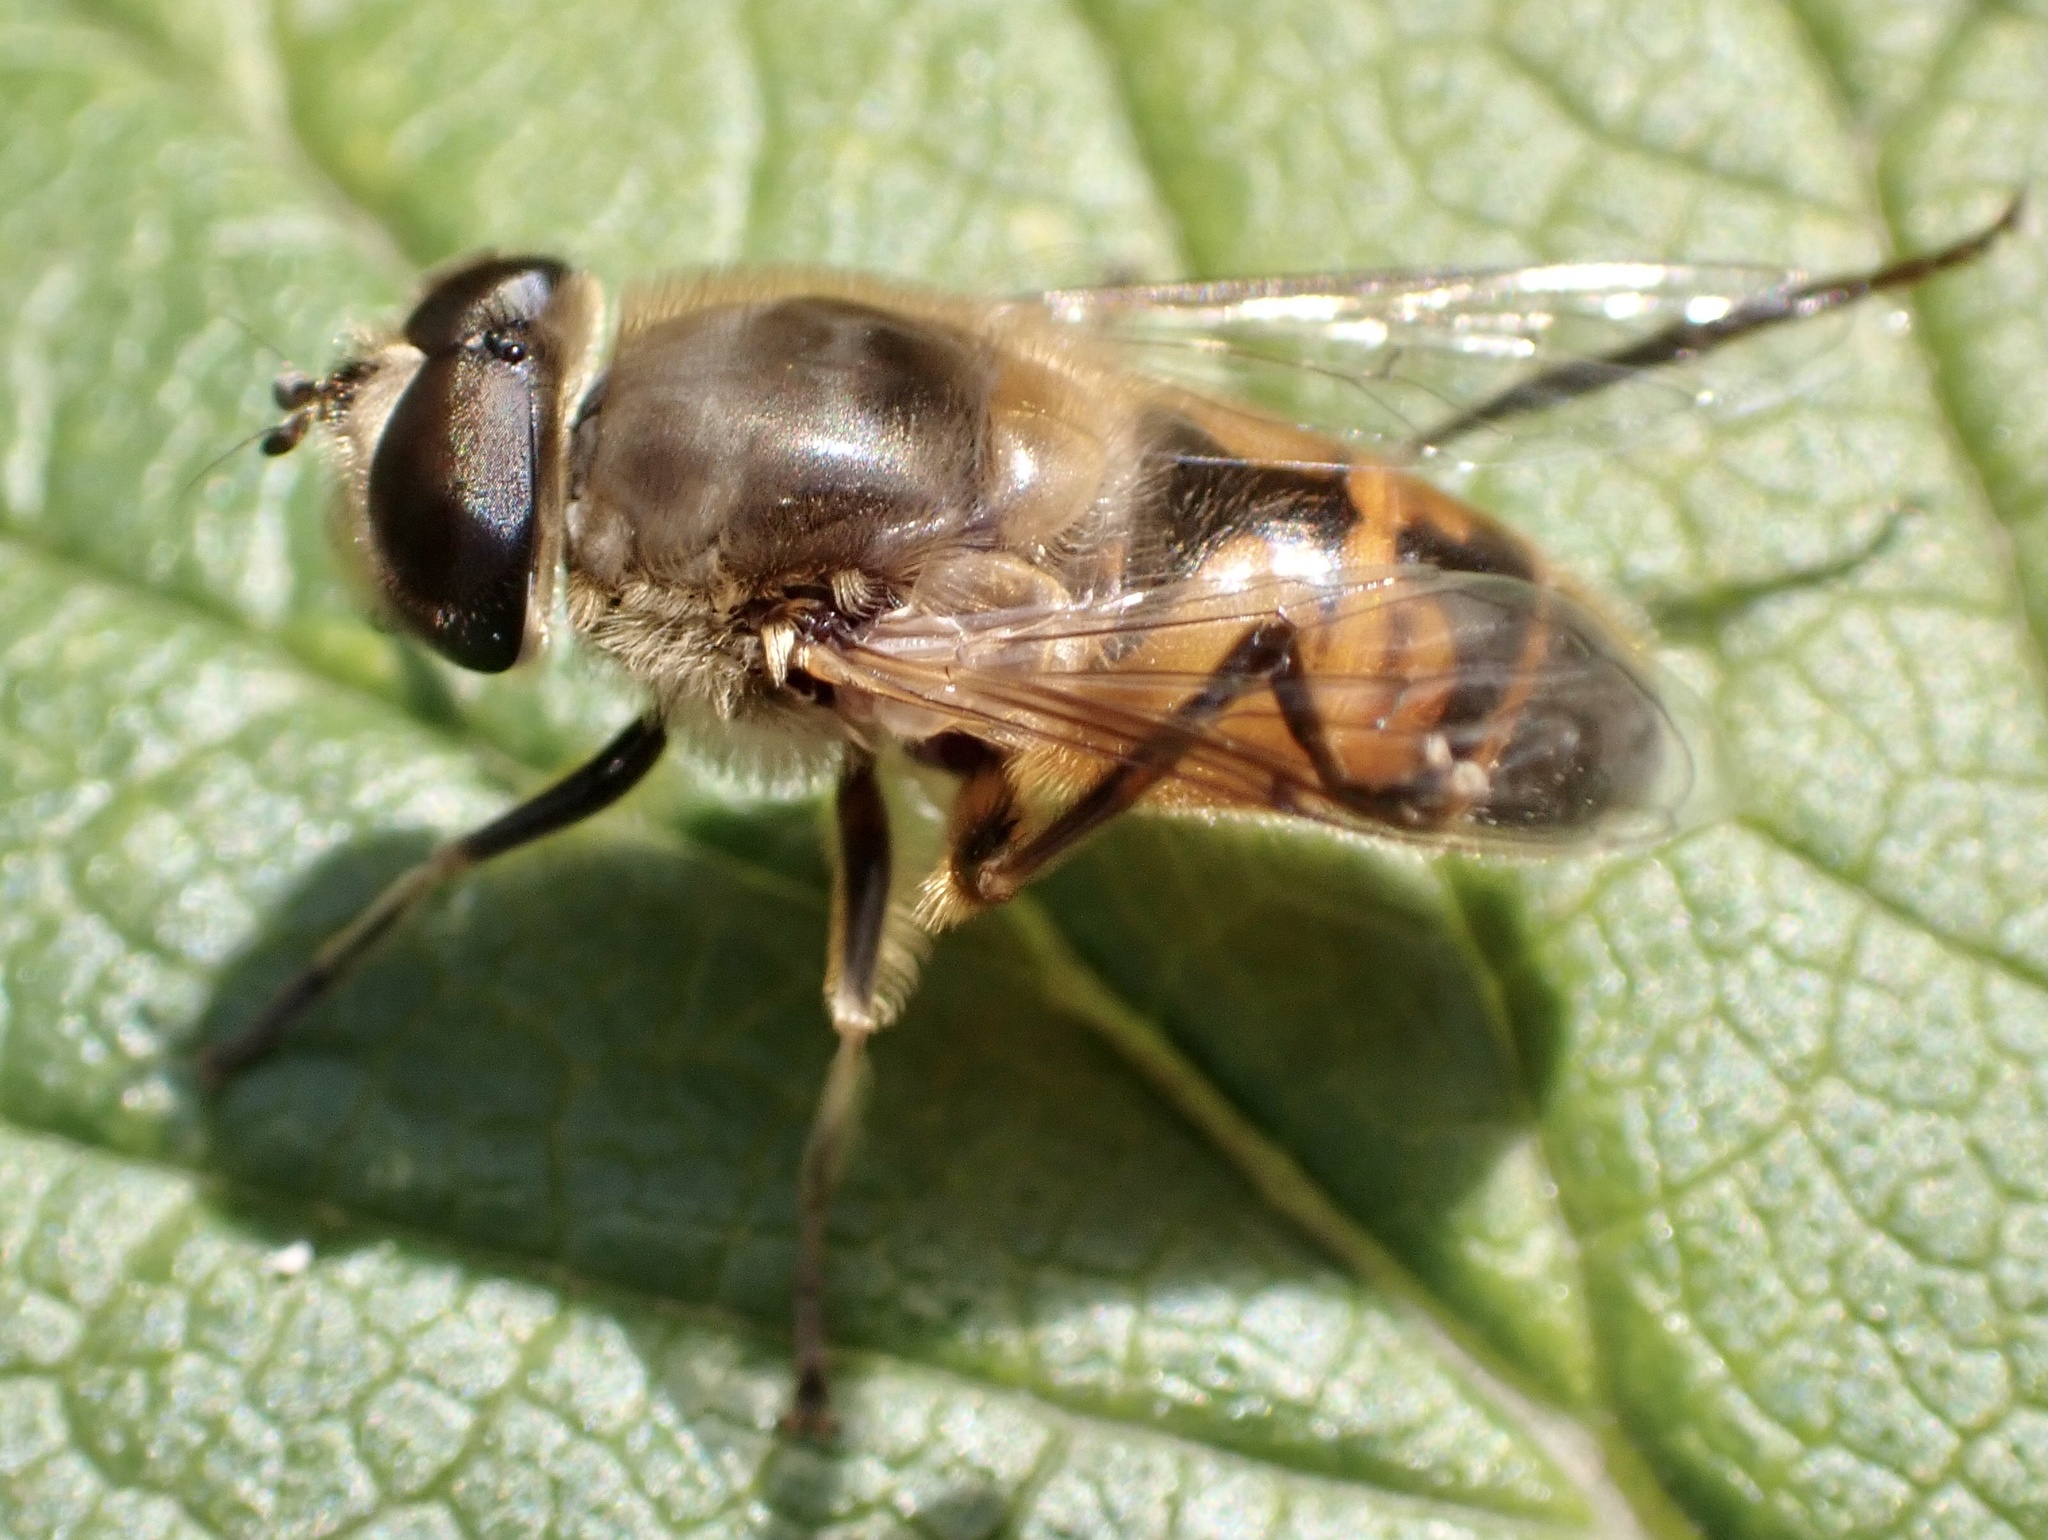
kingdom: Animalia
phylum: Arthropoda
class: Insecta
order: Diptera
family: Syrphidae
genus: Eristalis
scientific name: Eristalis tenax
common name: Drone fly
